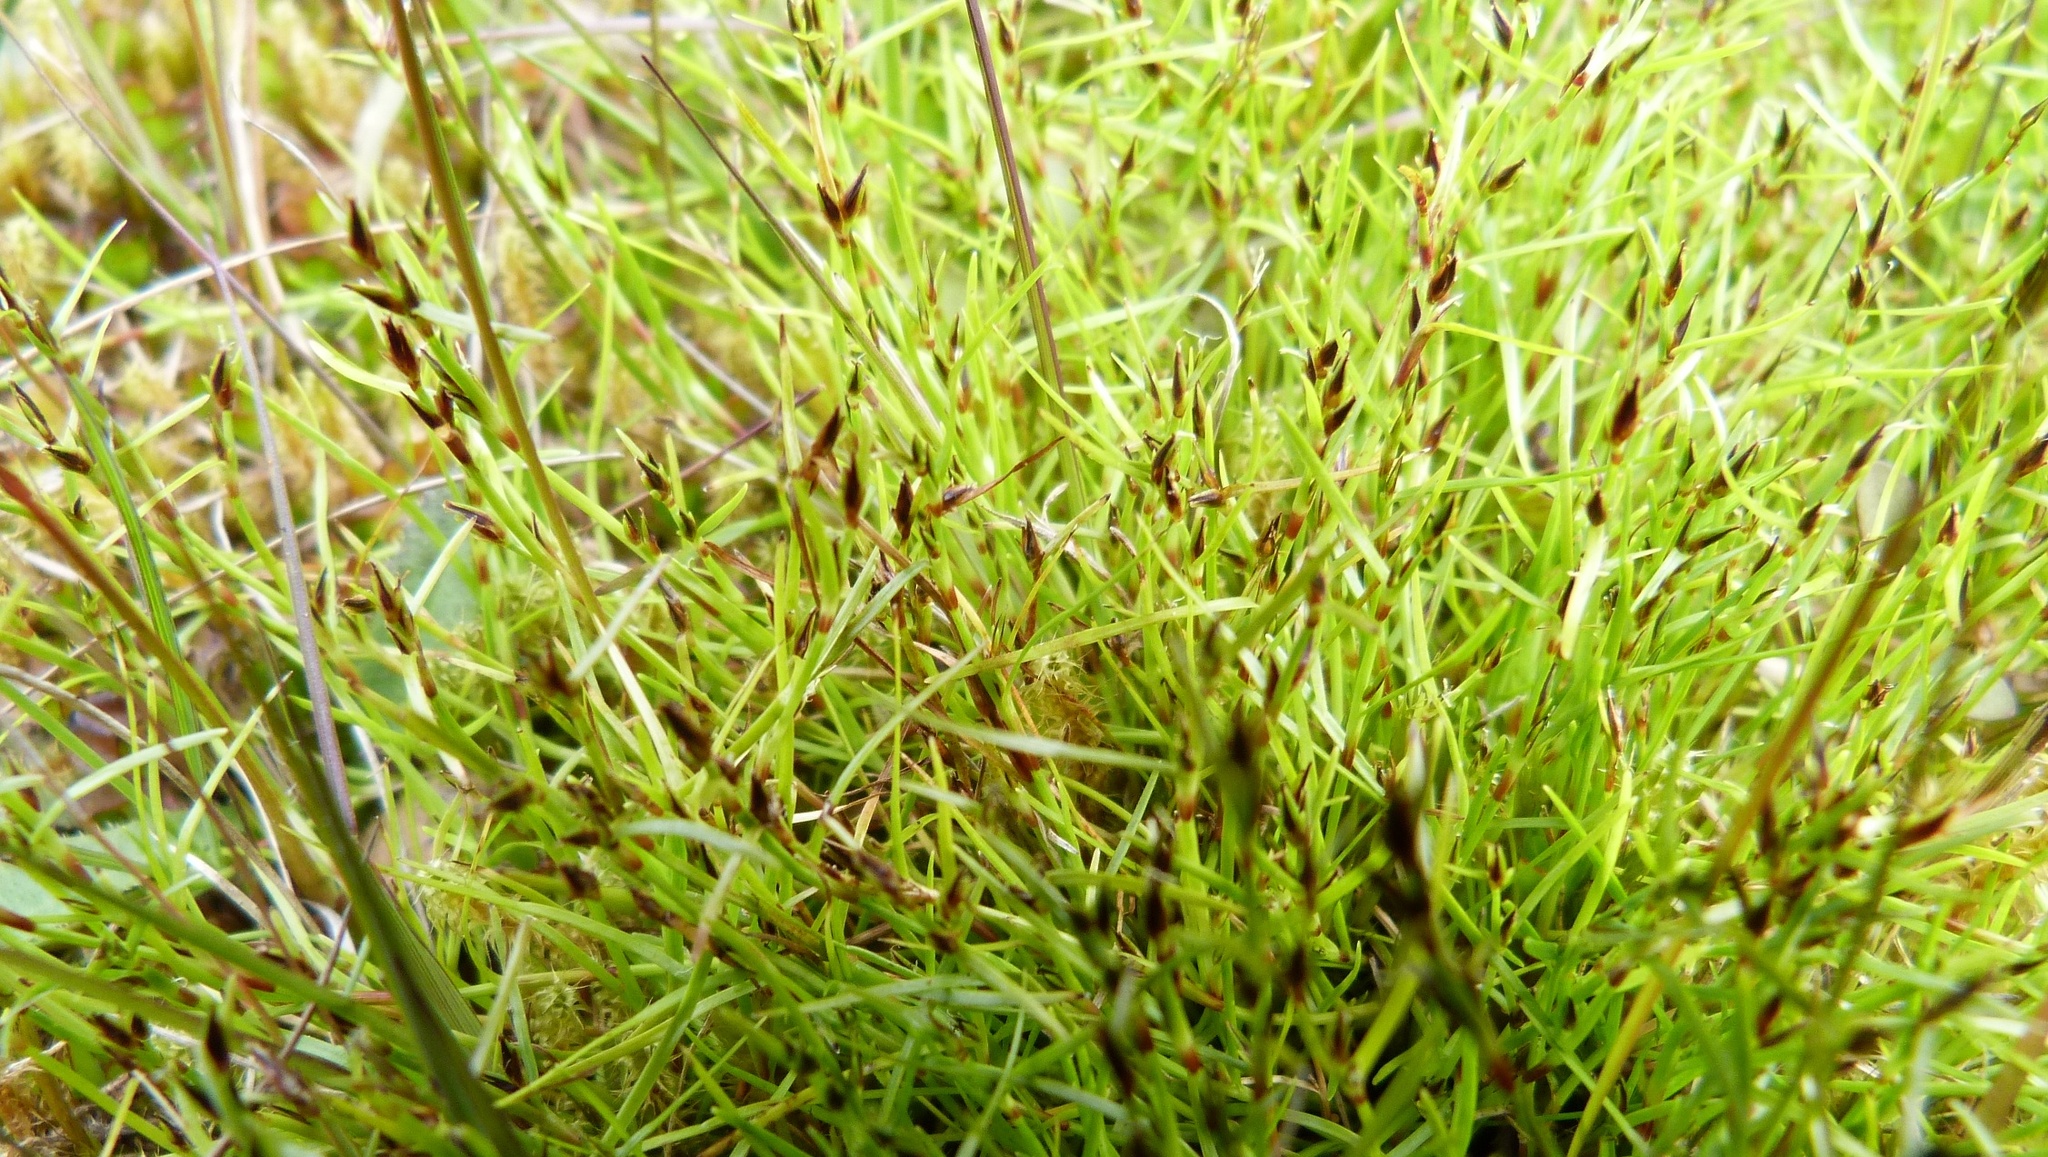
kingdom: Plantae
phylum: Tracheophyta
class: Liliopsida
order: Poales
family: Cyperaceae
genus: Schoenus
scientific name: Schoenus maschalinus
